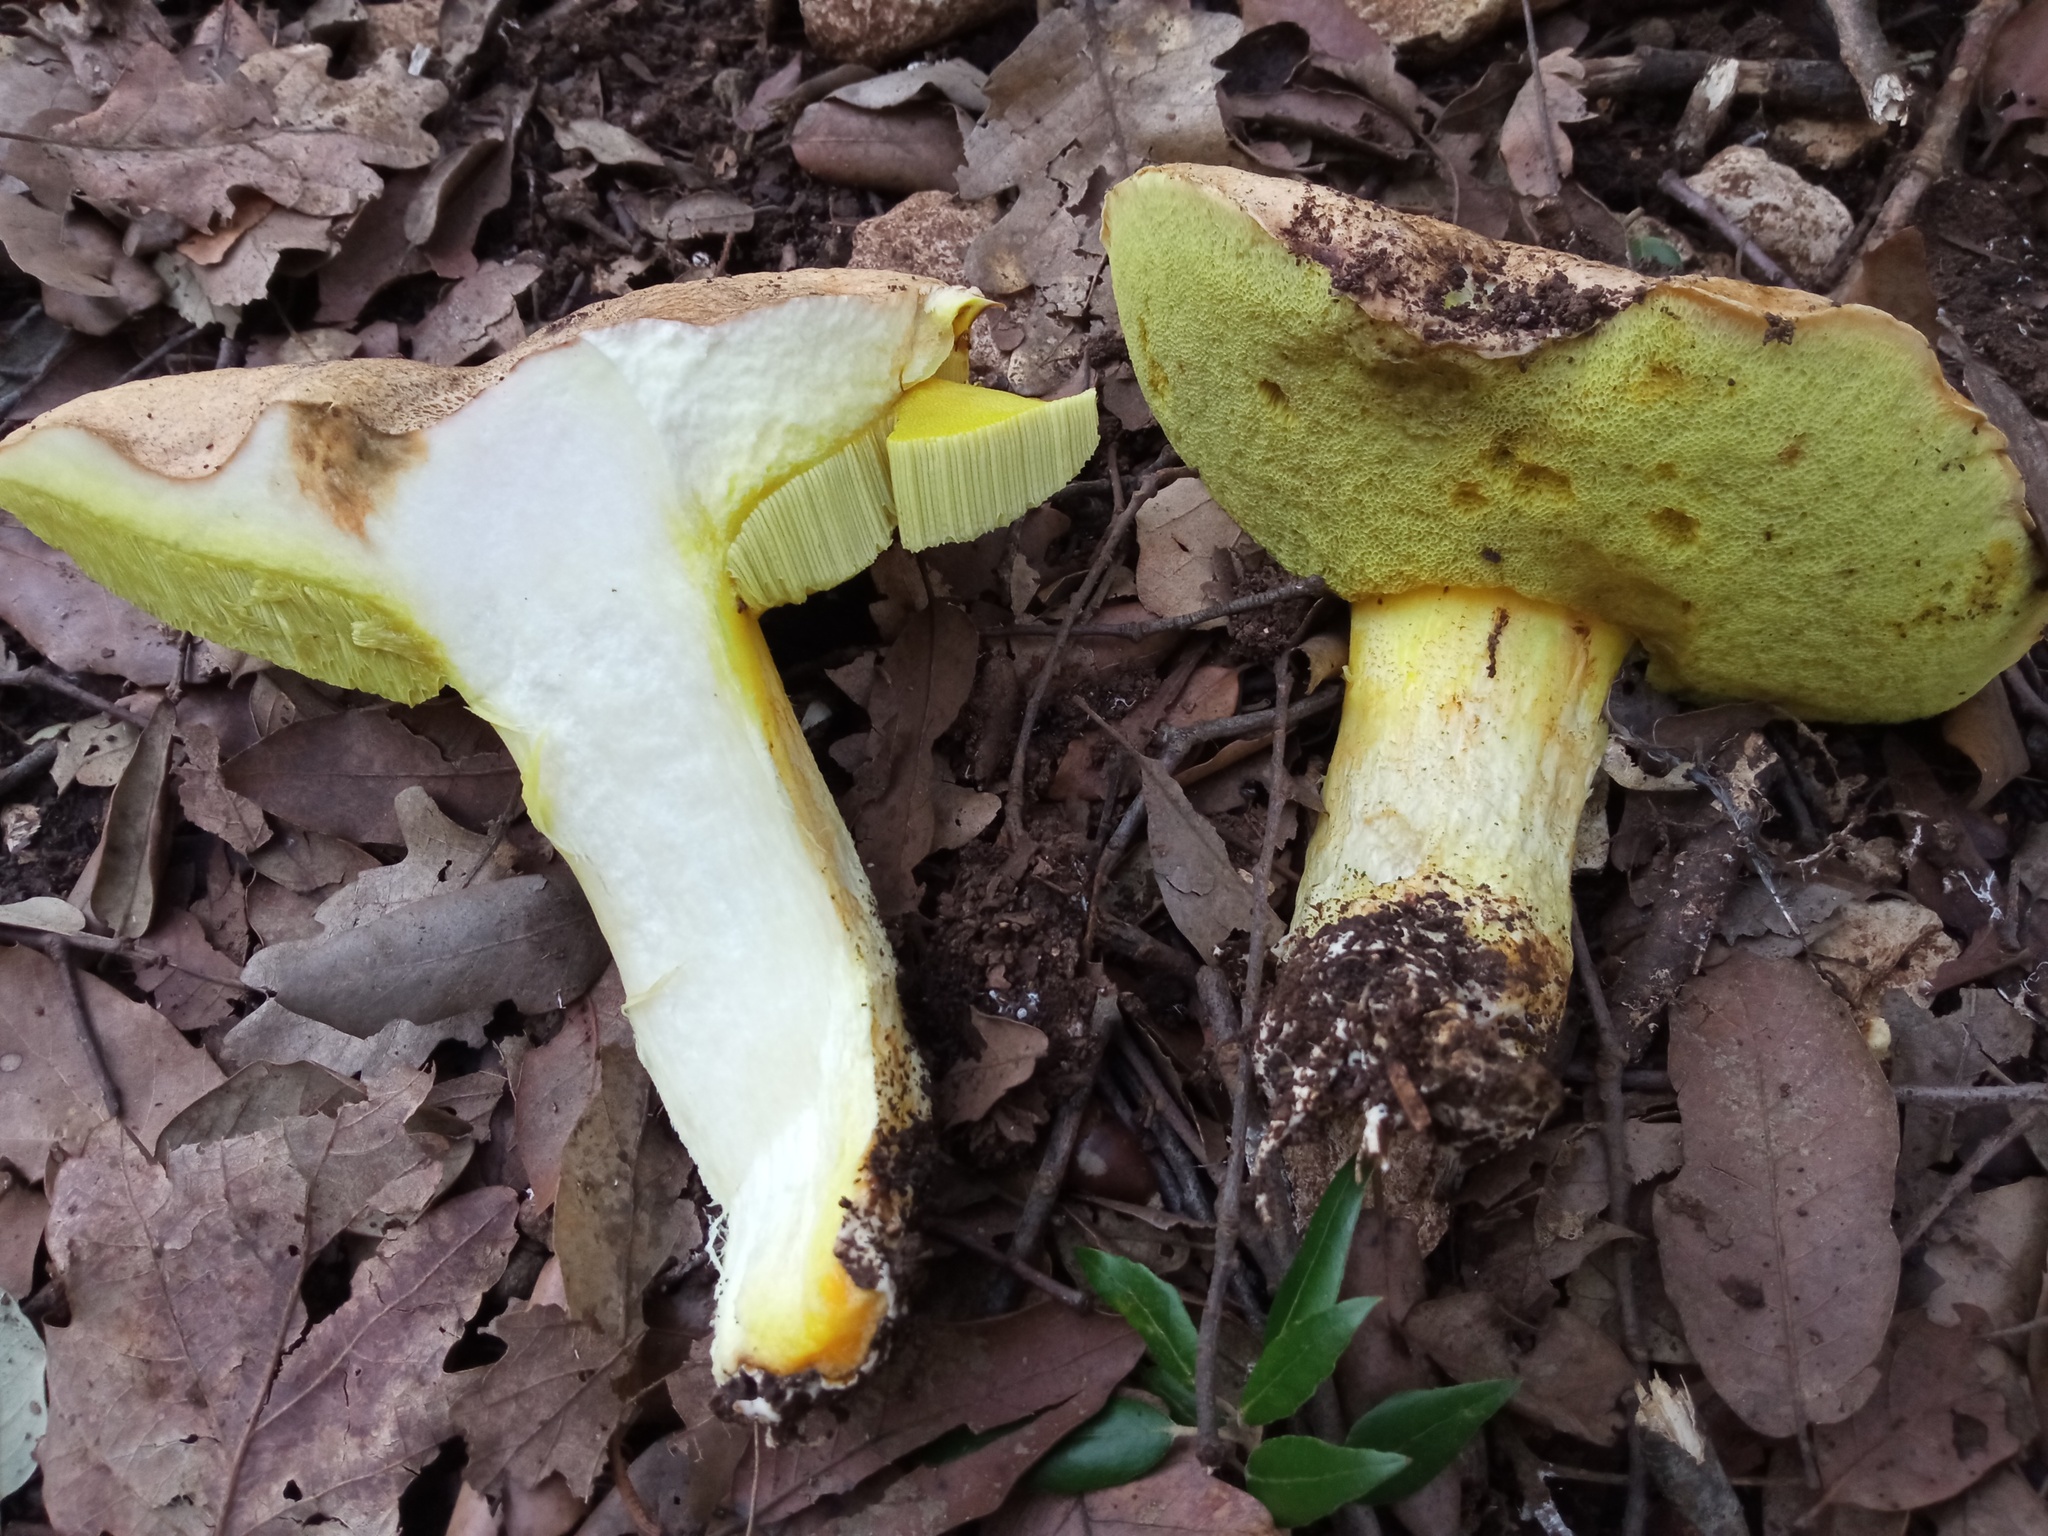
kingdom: Fungi
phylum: Basidiomycota
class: Agaricomycetes
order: Boletales
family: Boletaceae
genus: Hemileccinum
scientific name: Hemileccinum impolitum
